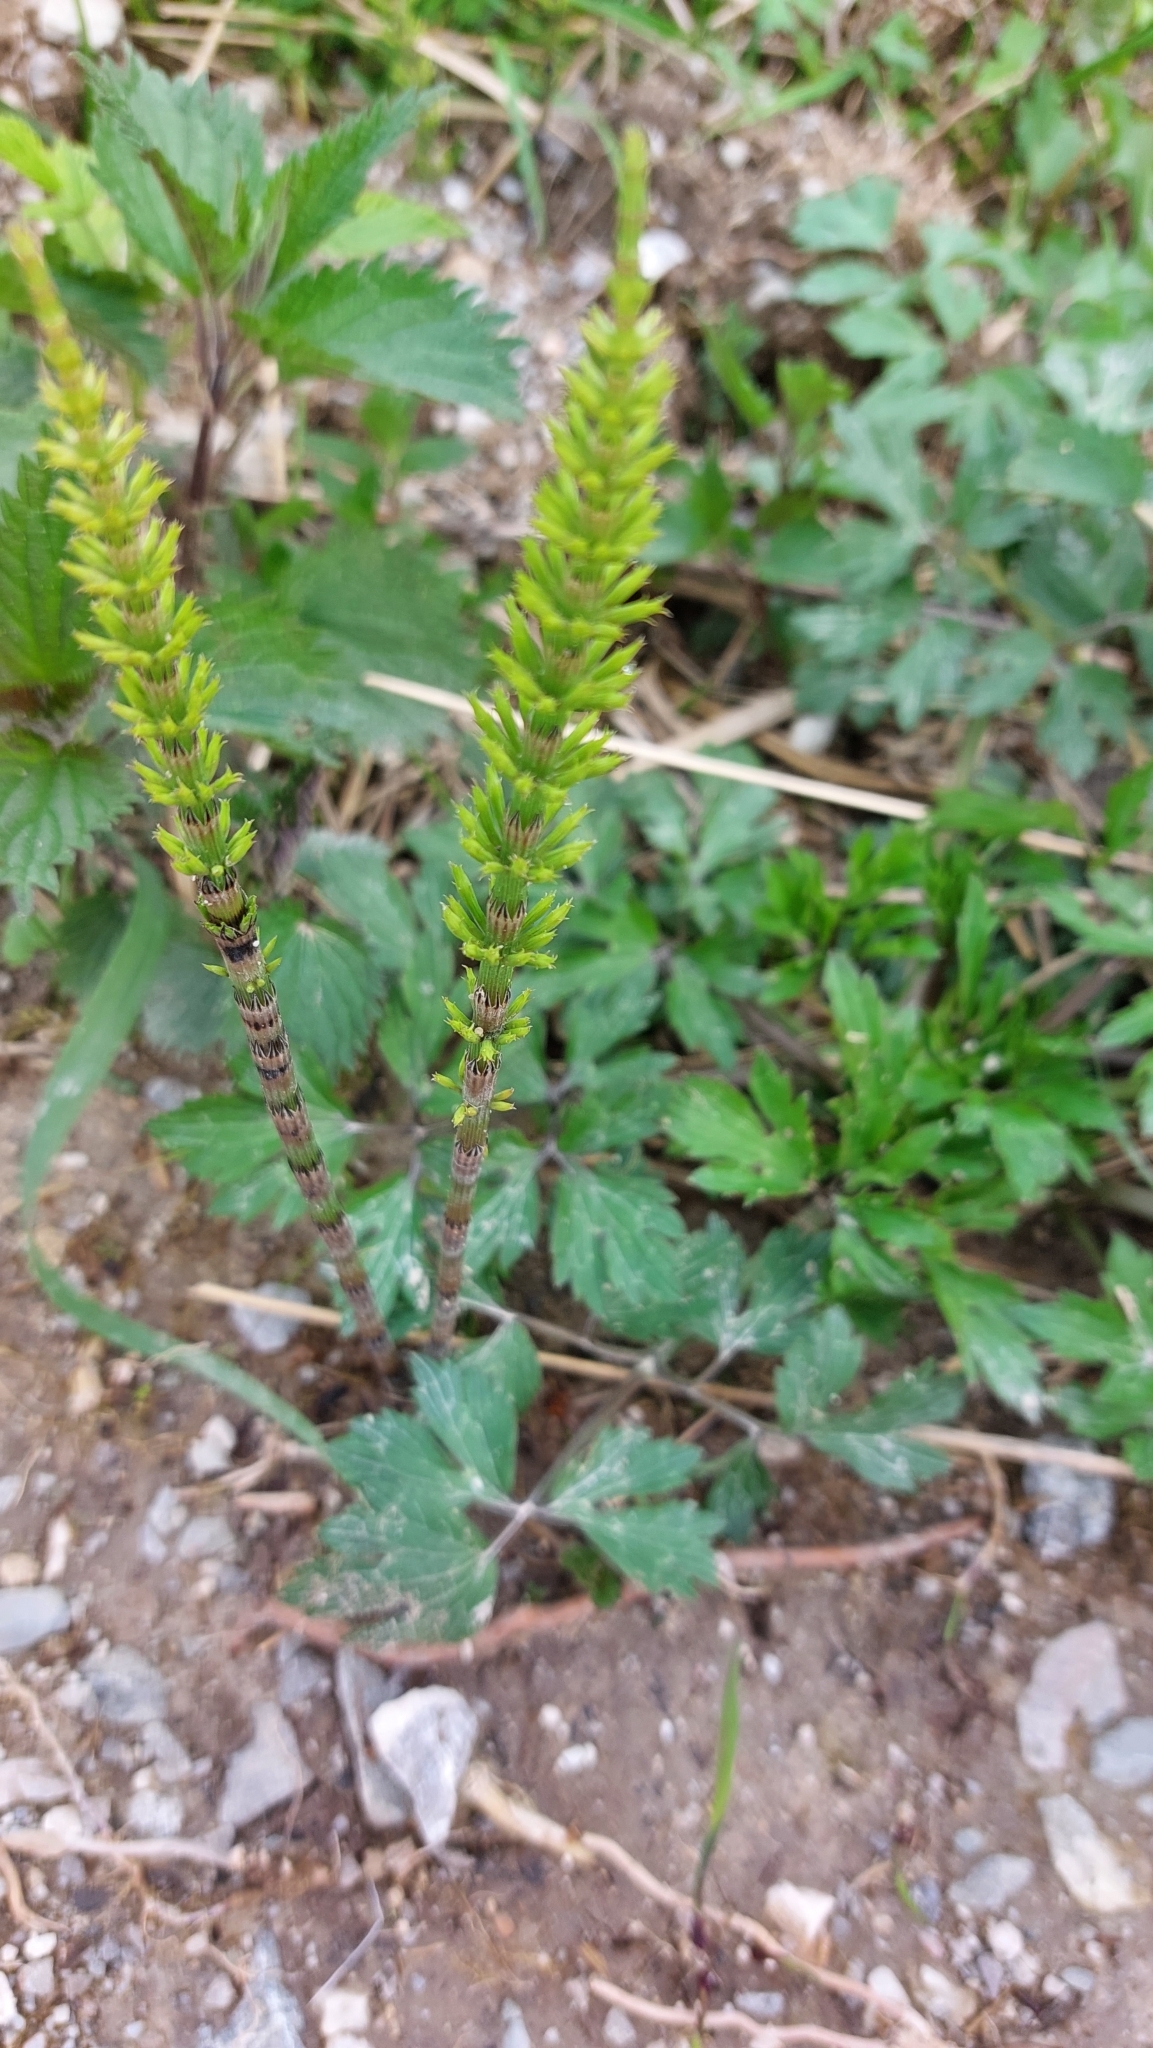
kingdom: Plantae
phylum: Tracheophyta
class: Polypodiopsida
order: Equisetales
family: Equisetaceae
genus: Equisetum
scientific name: Equisetum arvense
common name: Field horsetail
